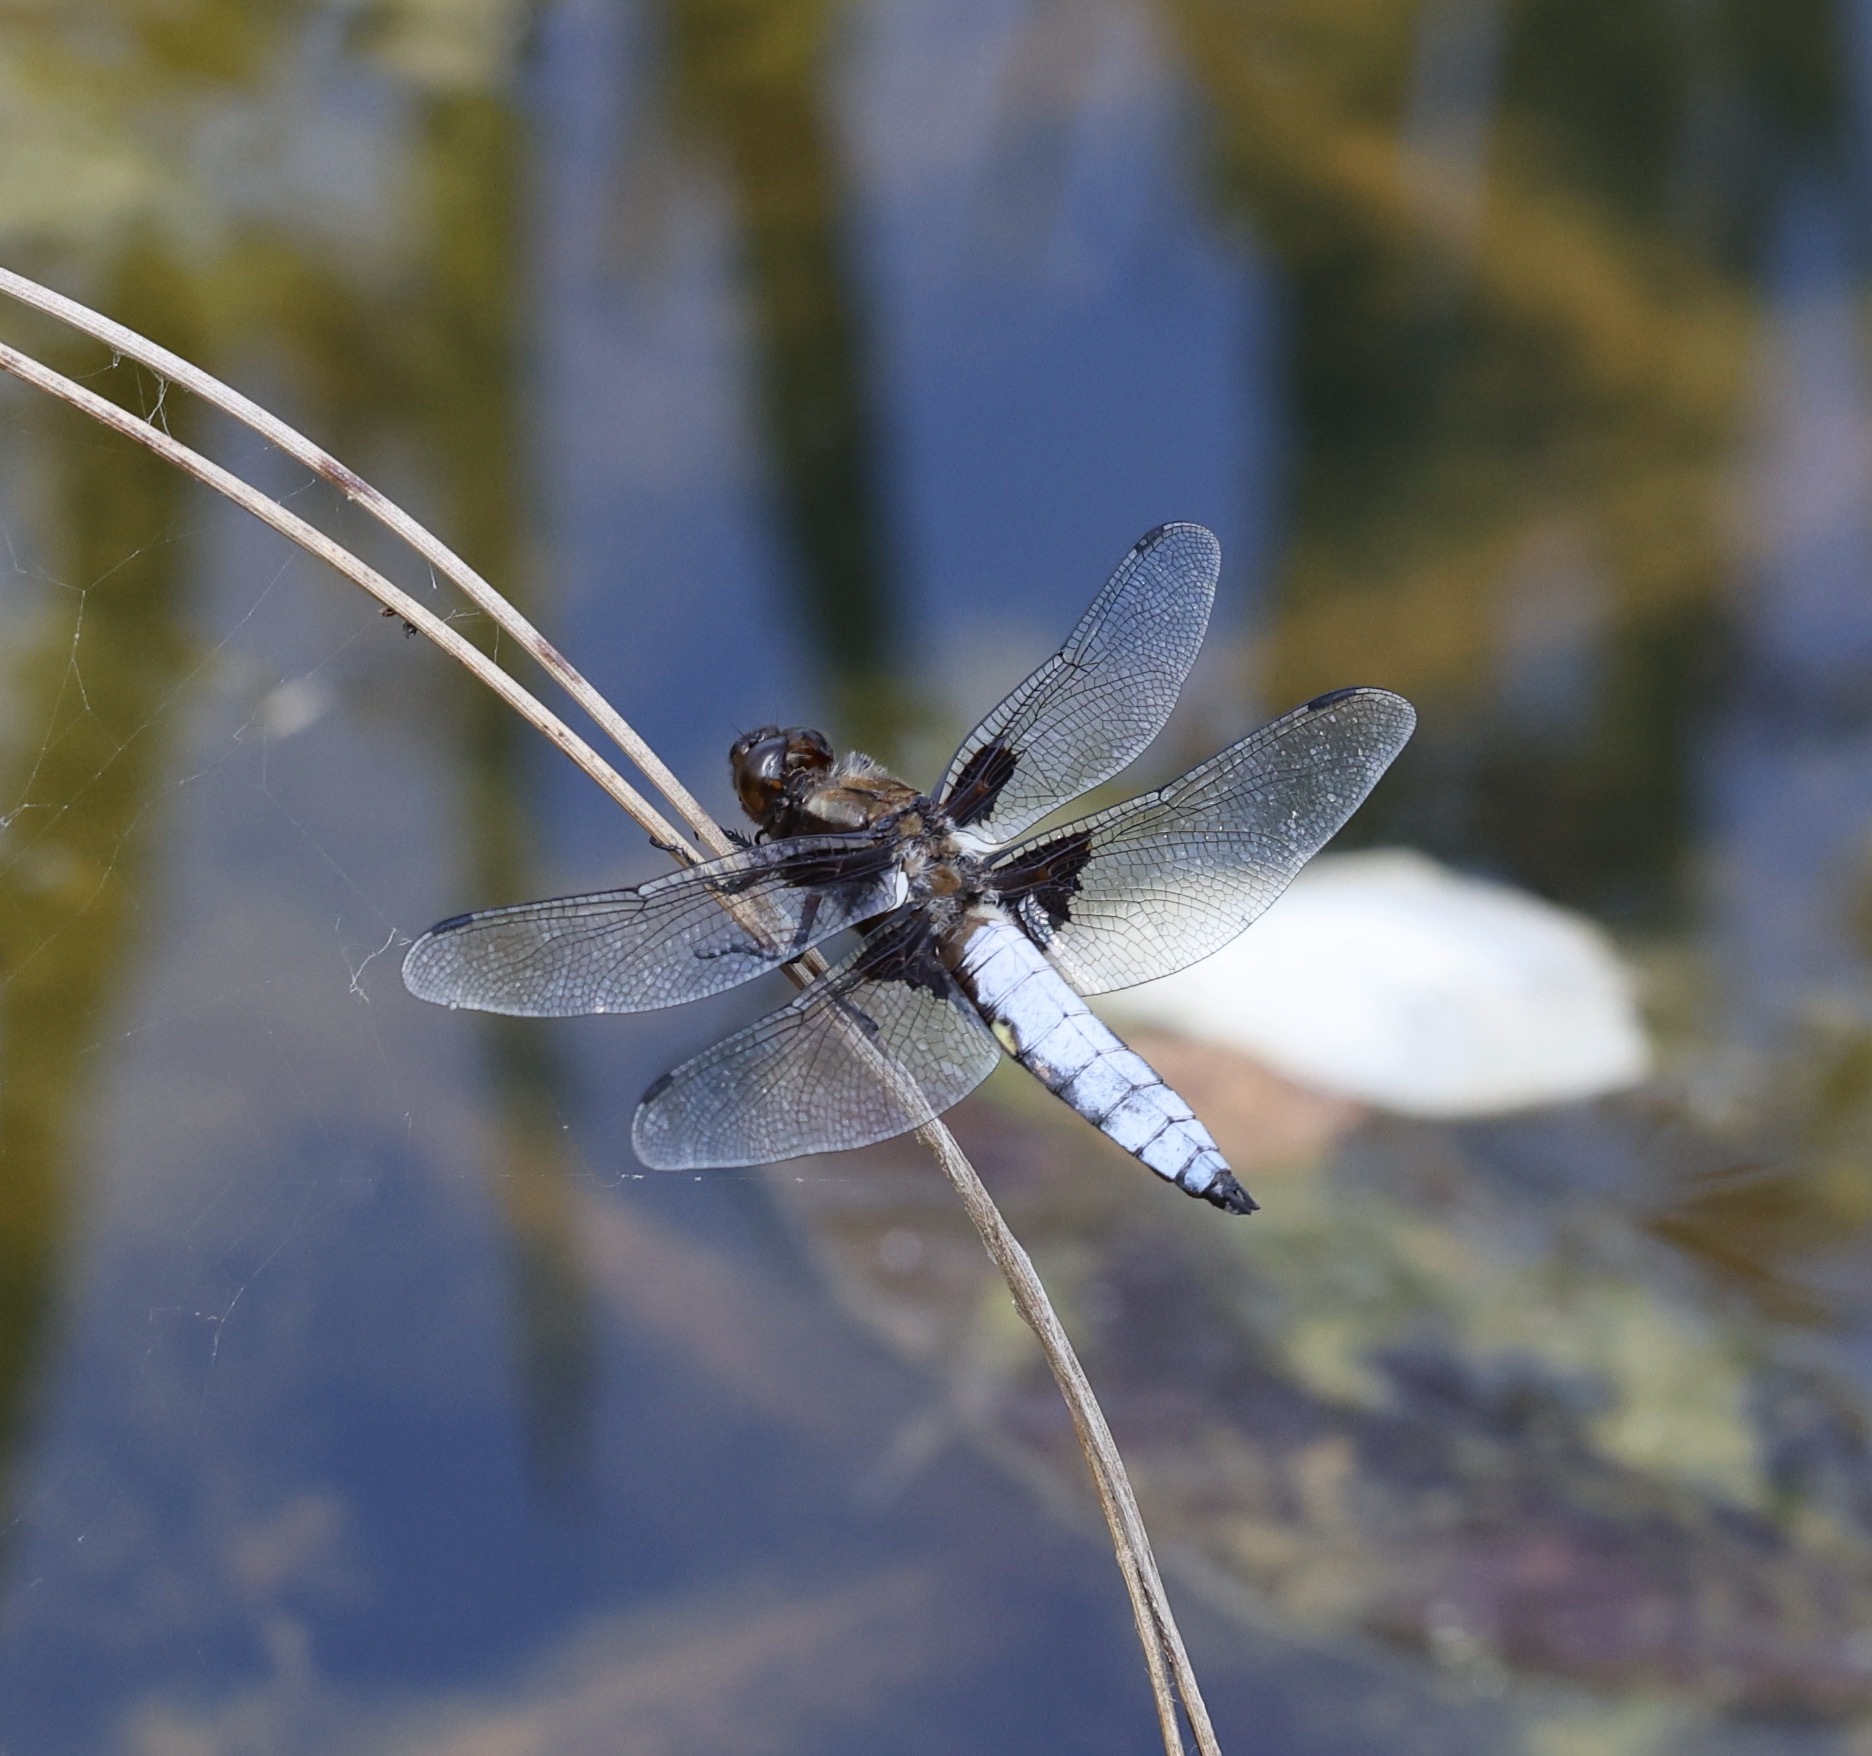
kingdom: Animalia
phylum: Arthropoda
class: Insecta
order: Odonata
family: Libellulidae
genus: Libellula
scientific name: Libellula depressa
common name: Broad-bodied chaser
